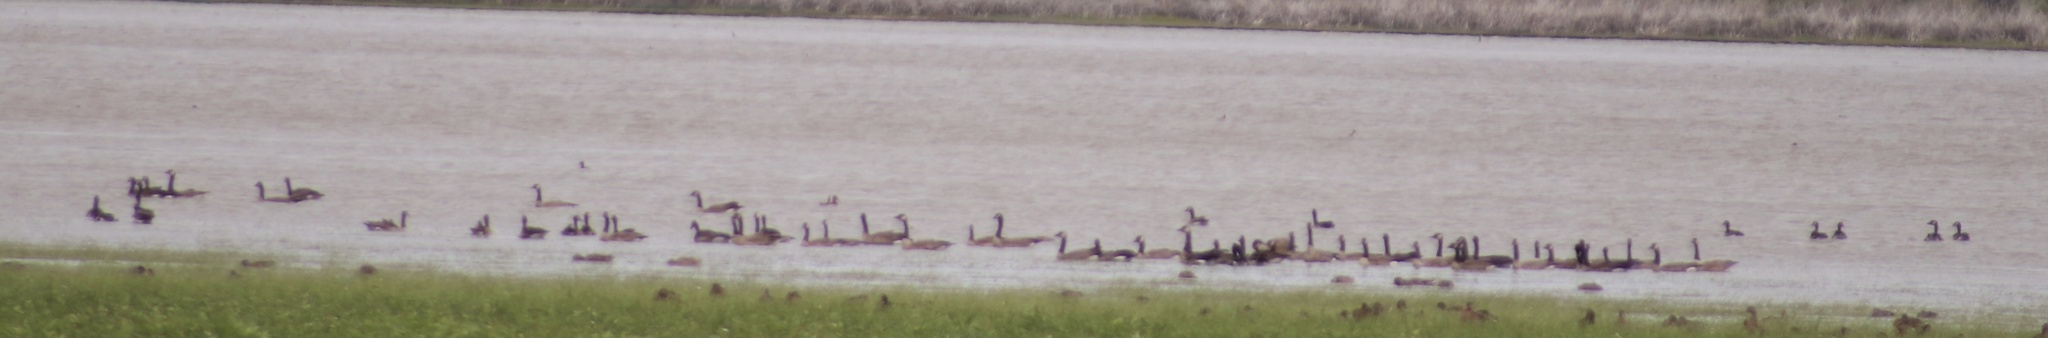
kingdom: Animalia
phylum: Chordata
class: Aves
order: Anseriformes
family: Anatidae
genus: Branta
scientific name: Branta canadensis
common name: Canada goose
